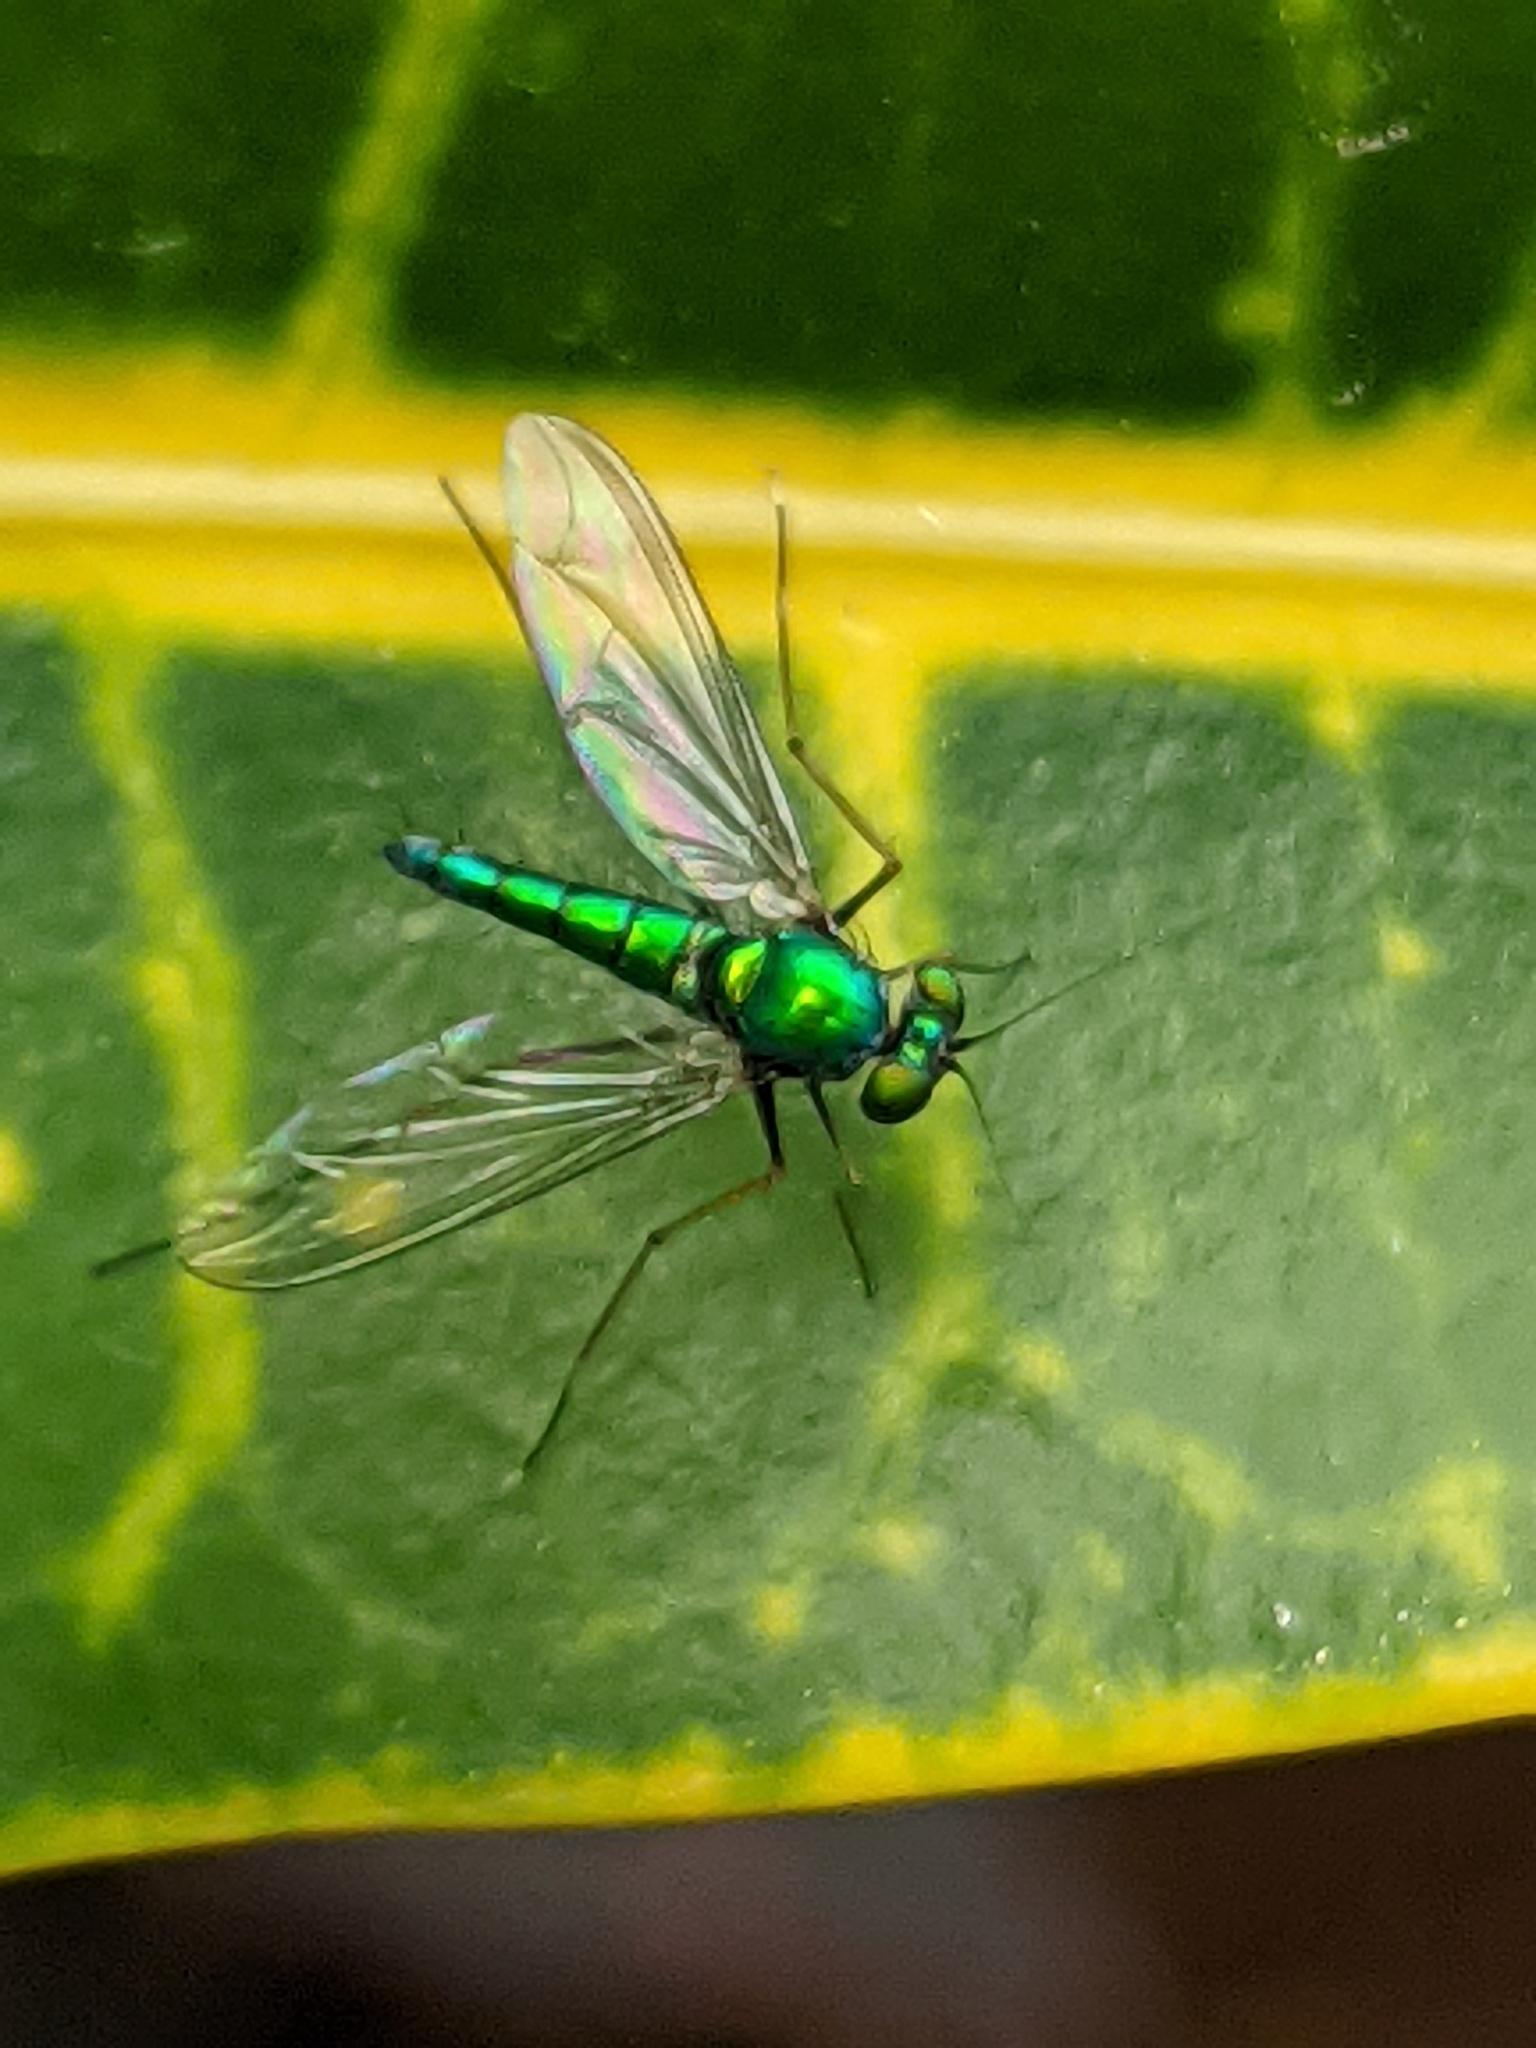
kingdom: Animalia
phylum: Arthropoda
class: Insecta
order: Diptera
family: Dolichopodidae
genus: Chrysosoma
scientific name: Chrysosoma leucopogon
